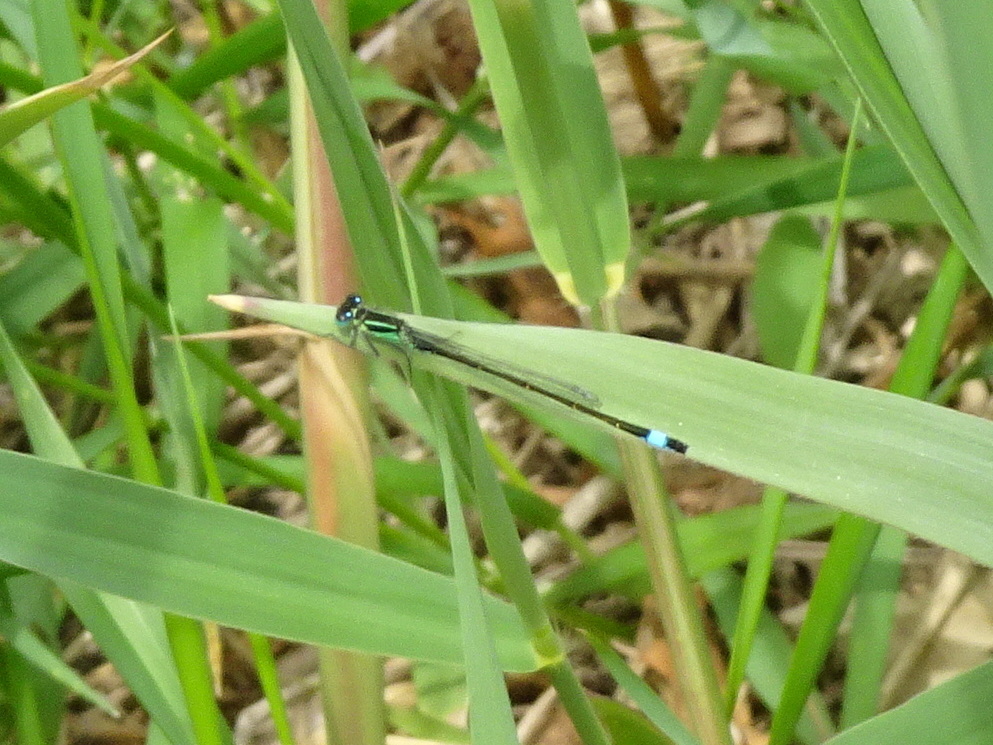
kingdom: Animalia
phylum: Arthropoda
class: Insecta
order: Odonata
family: Coenagrionidae
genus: Ischnura
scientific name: Ischnura elegans
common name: Blue-tailed damselfly
